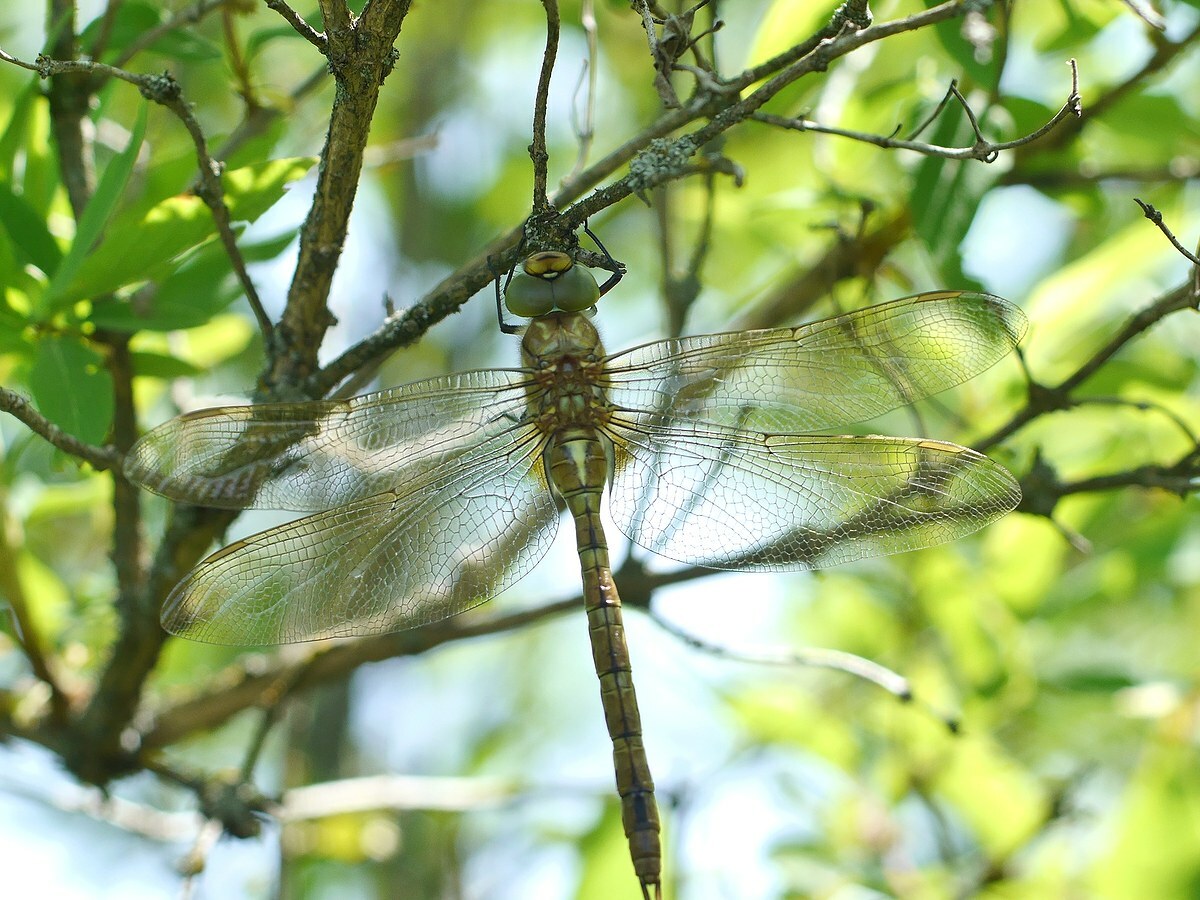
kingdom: Animalia
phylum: Arthropoda
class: Insecta
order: Odonata
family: Aeshnidae
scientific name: Aeshnidae
